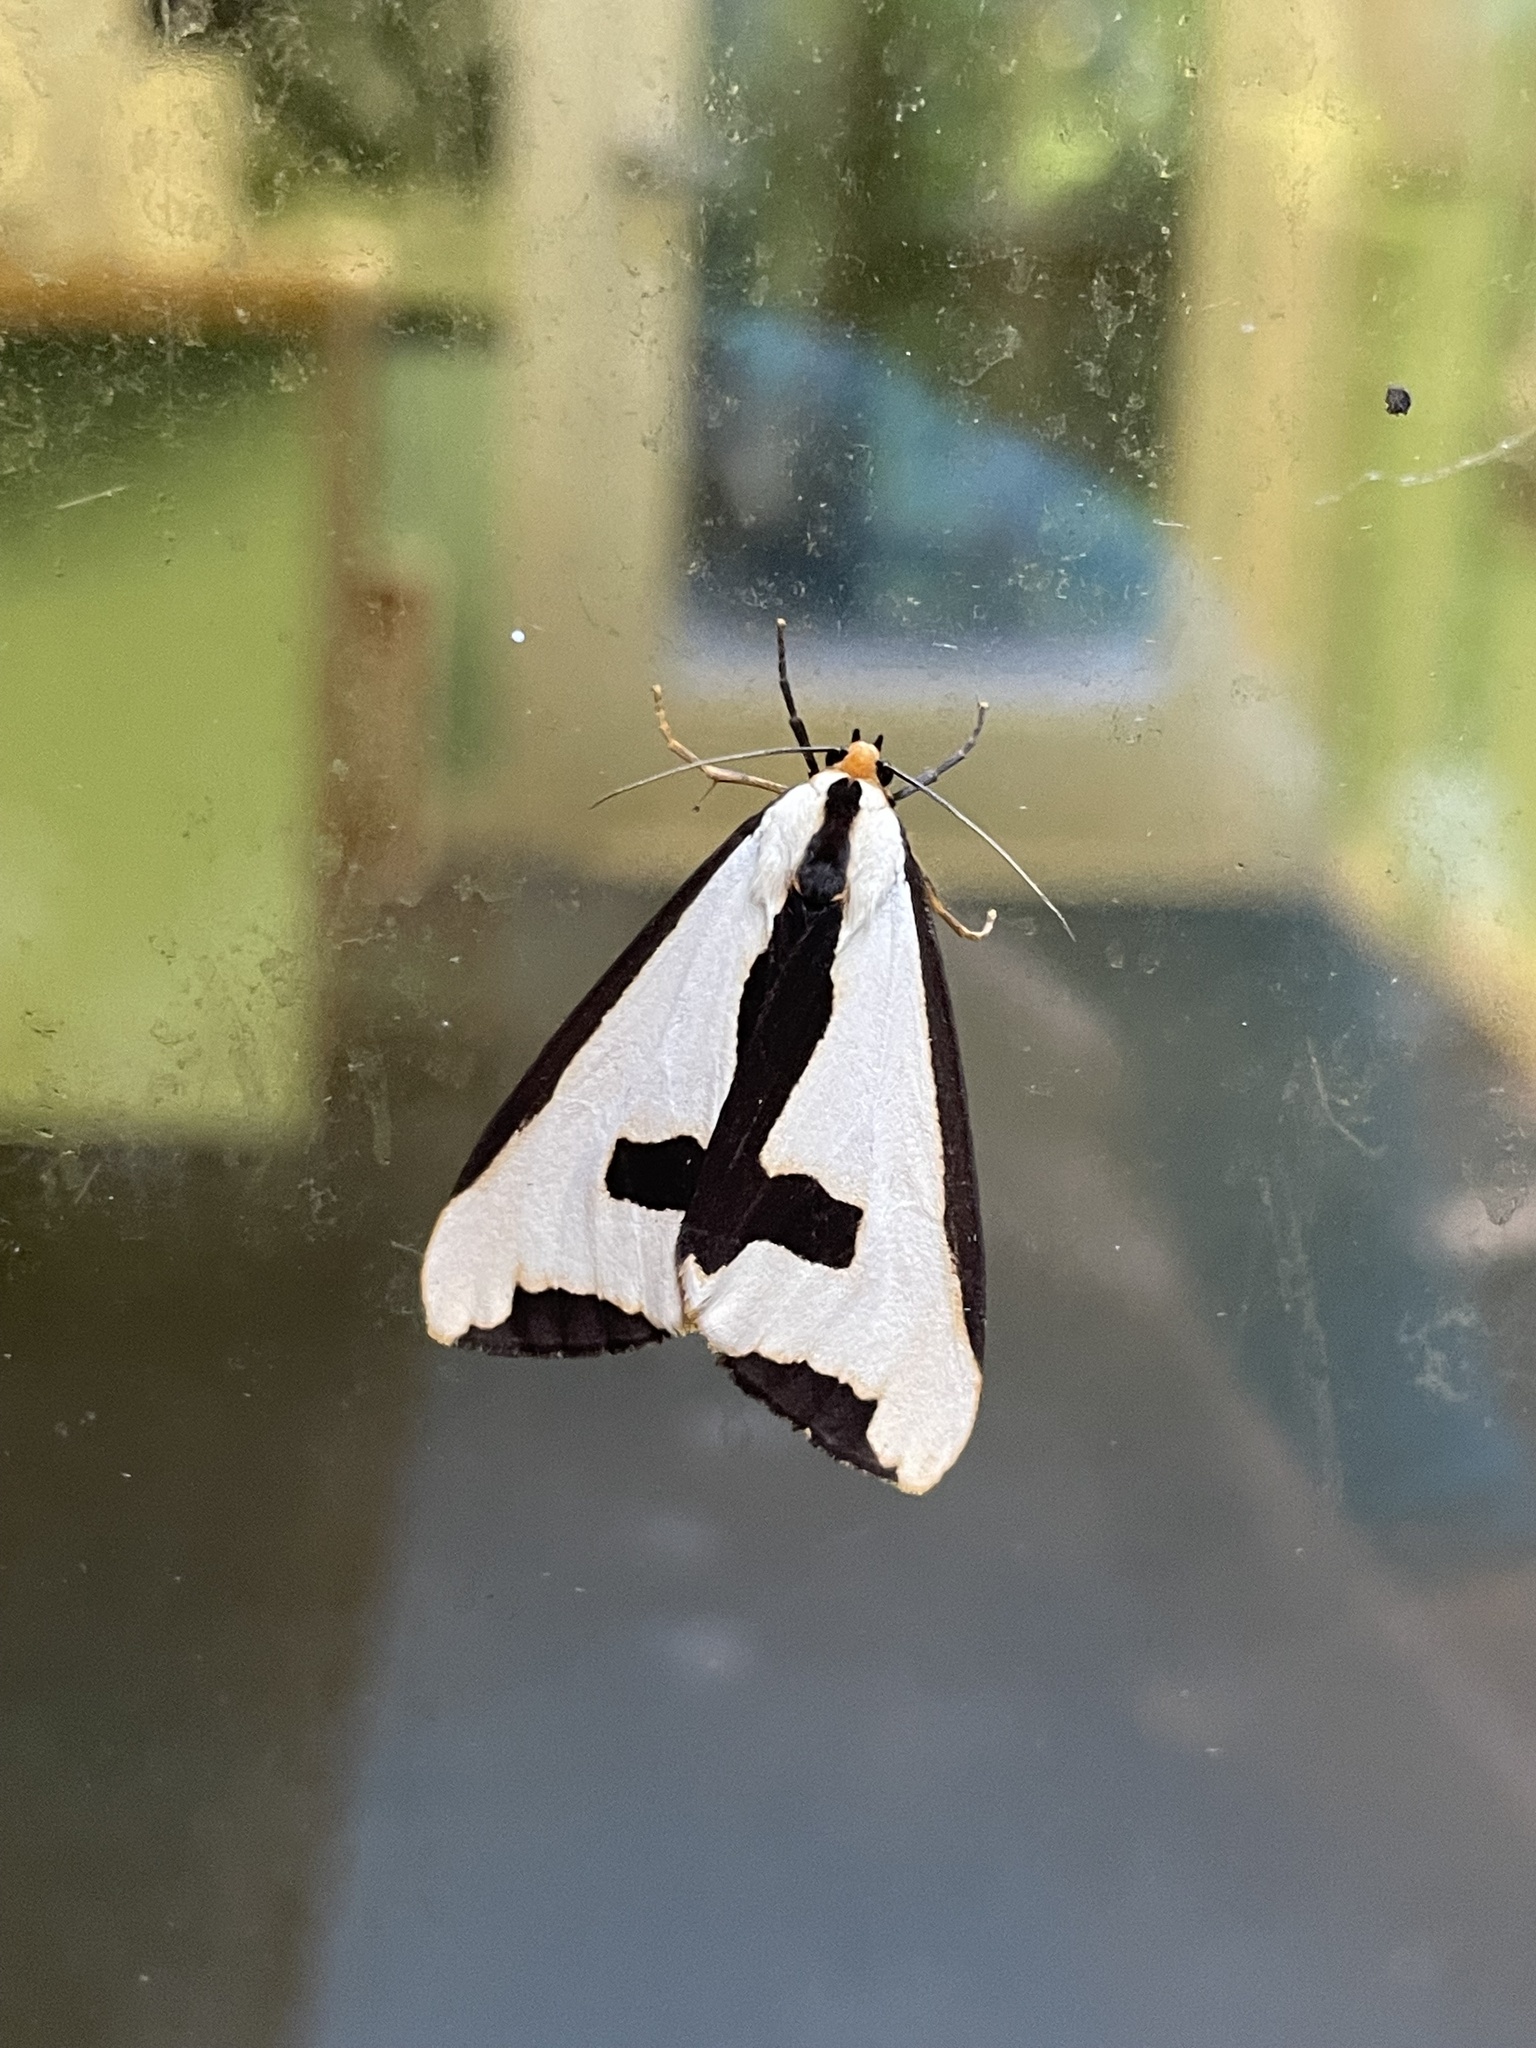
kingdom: Animalia
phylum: Arthropoda
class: Insecta
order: Lepidoptera
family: Erebidae
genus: Haploa
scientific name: Haploa clymene
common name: Clymene moth
